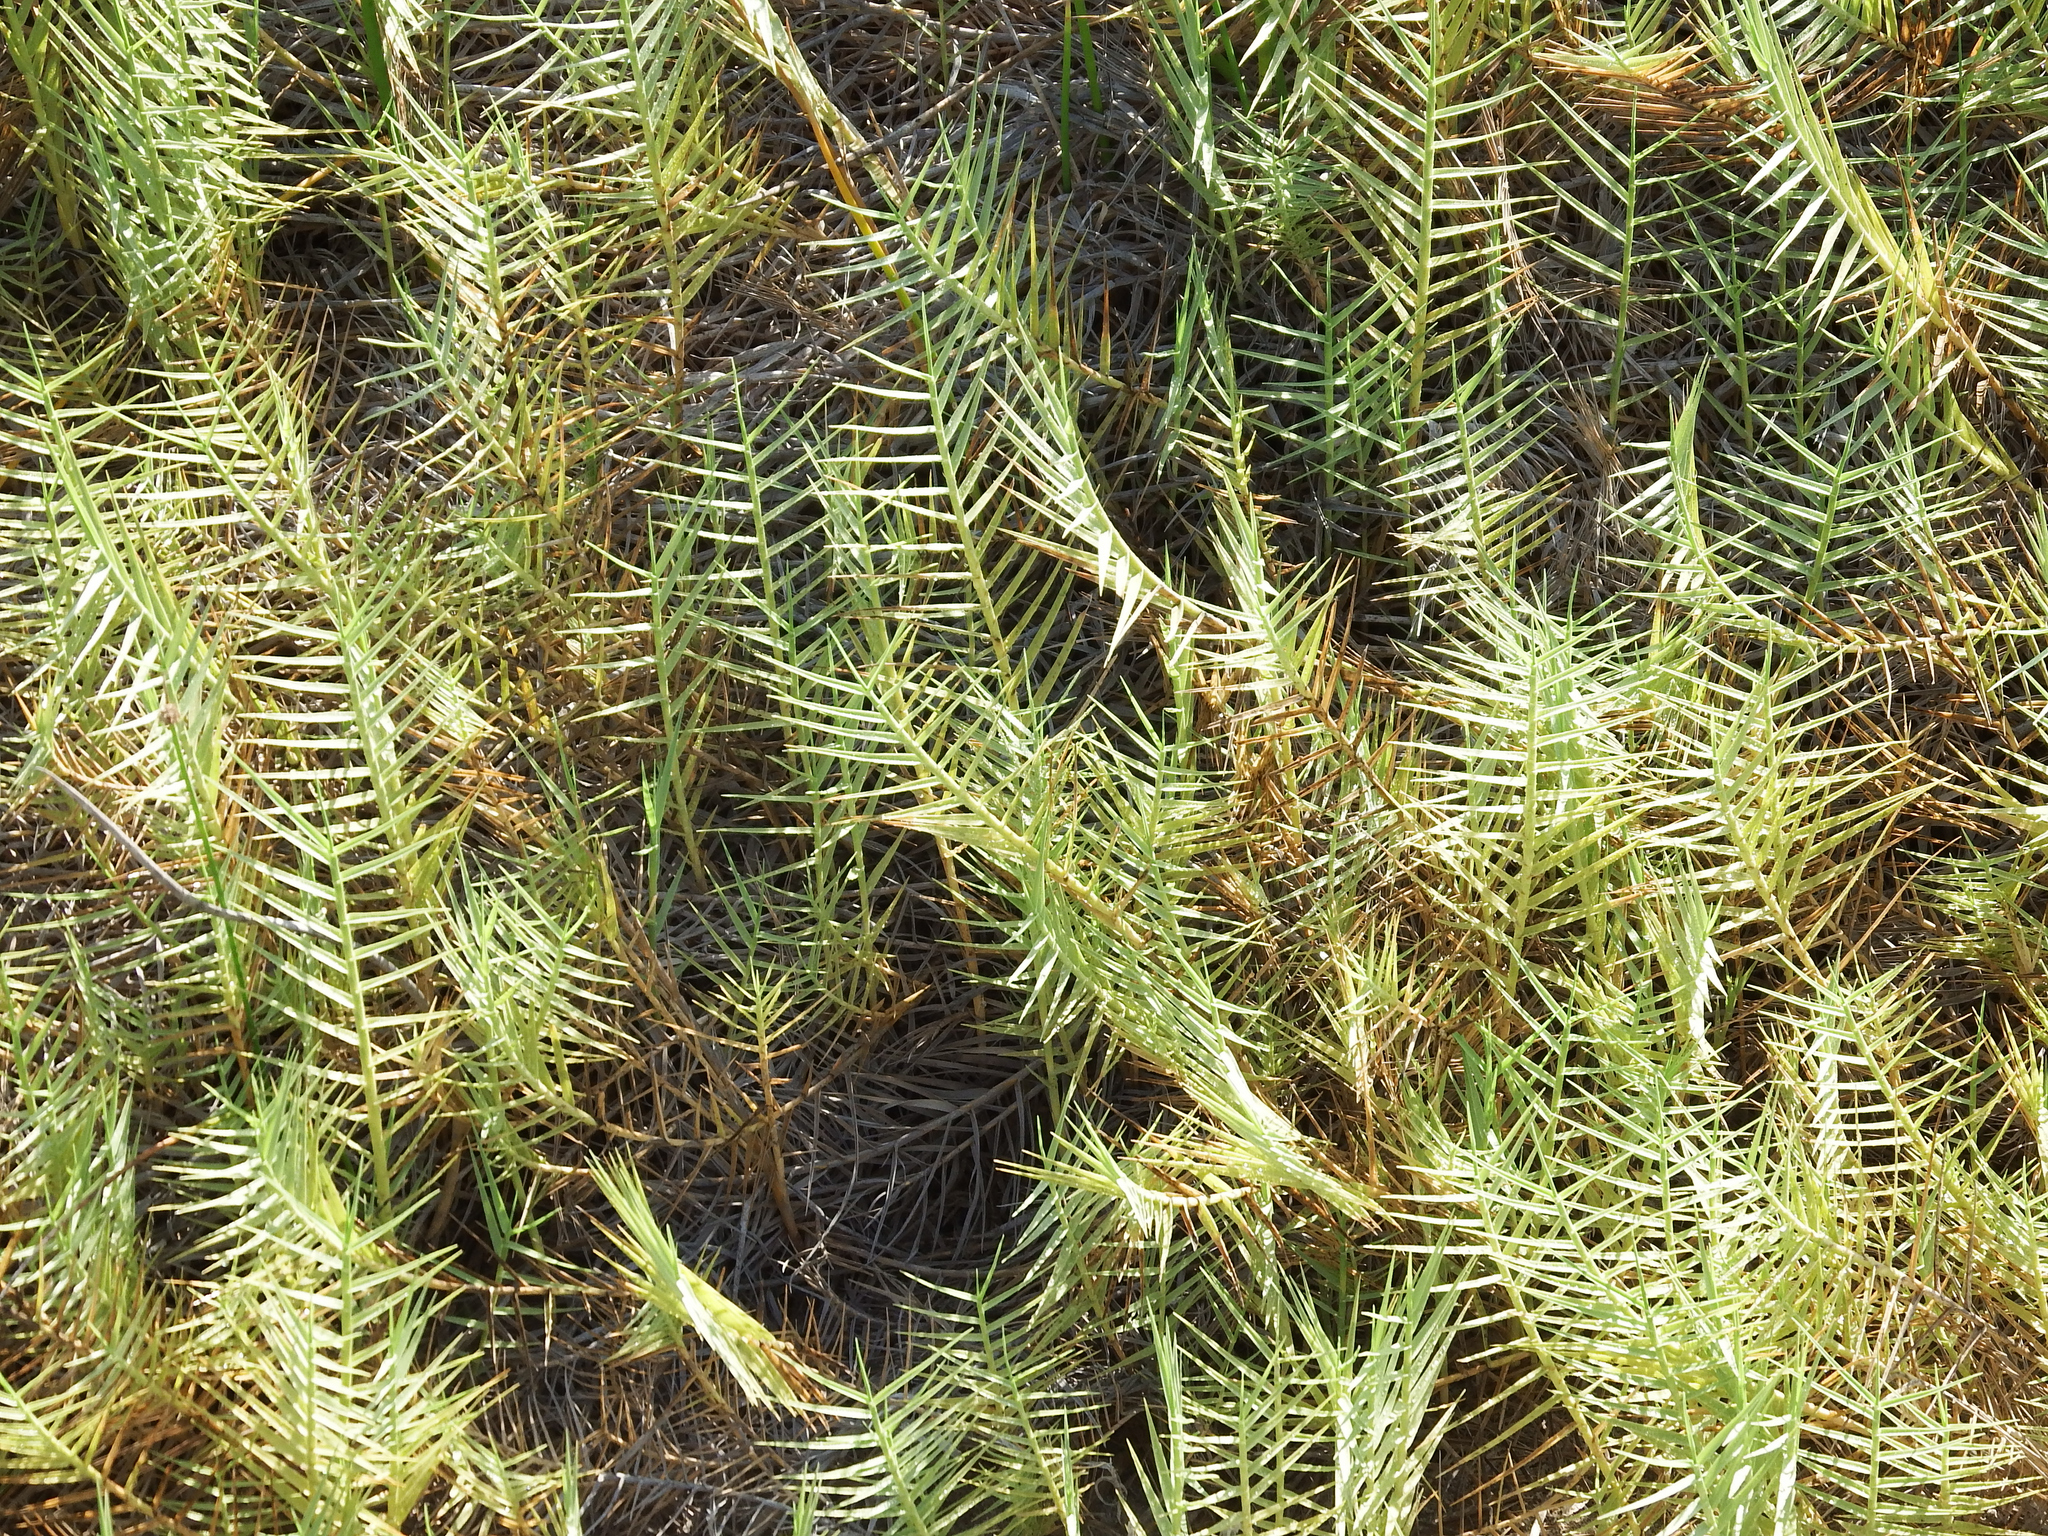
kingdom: Plantae
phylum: Tracheophyta
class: Liliopsida
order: Poales
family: Poaceae
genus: Distichlis
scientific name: Distichlis spicata
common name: Saltgrass
